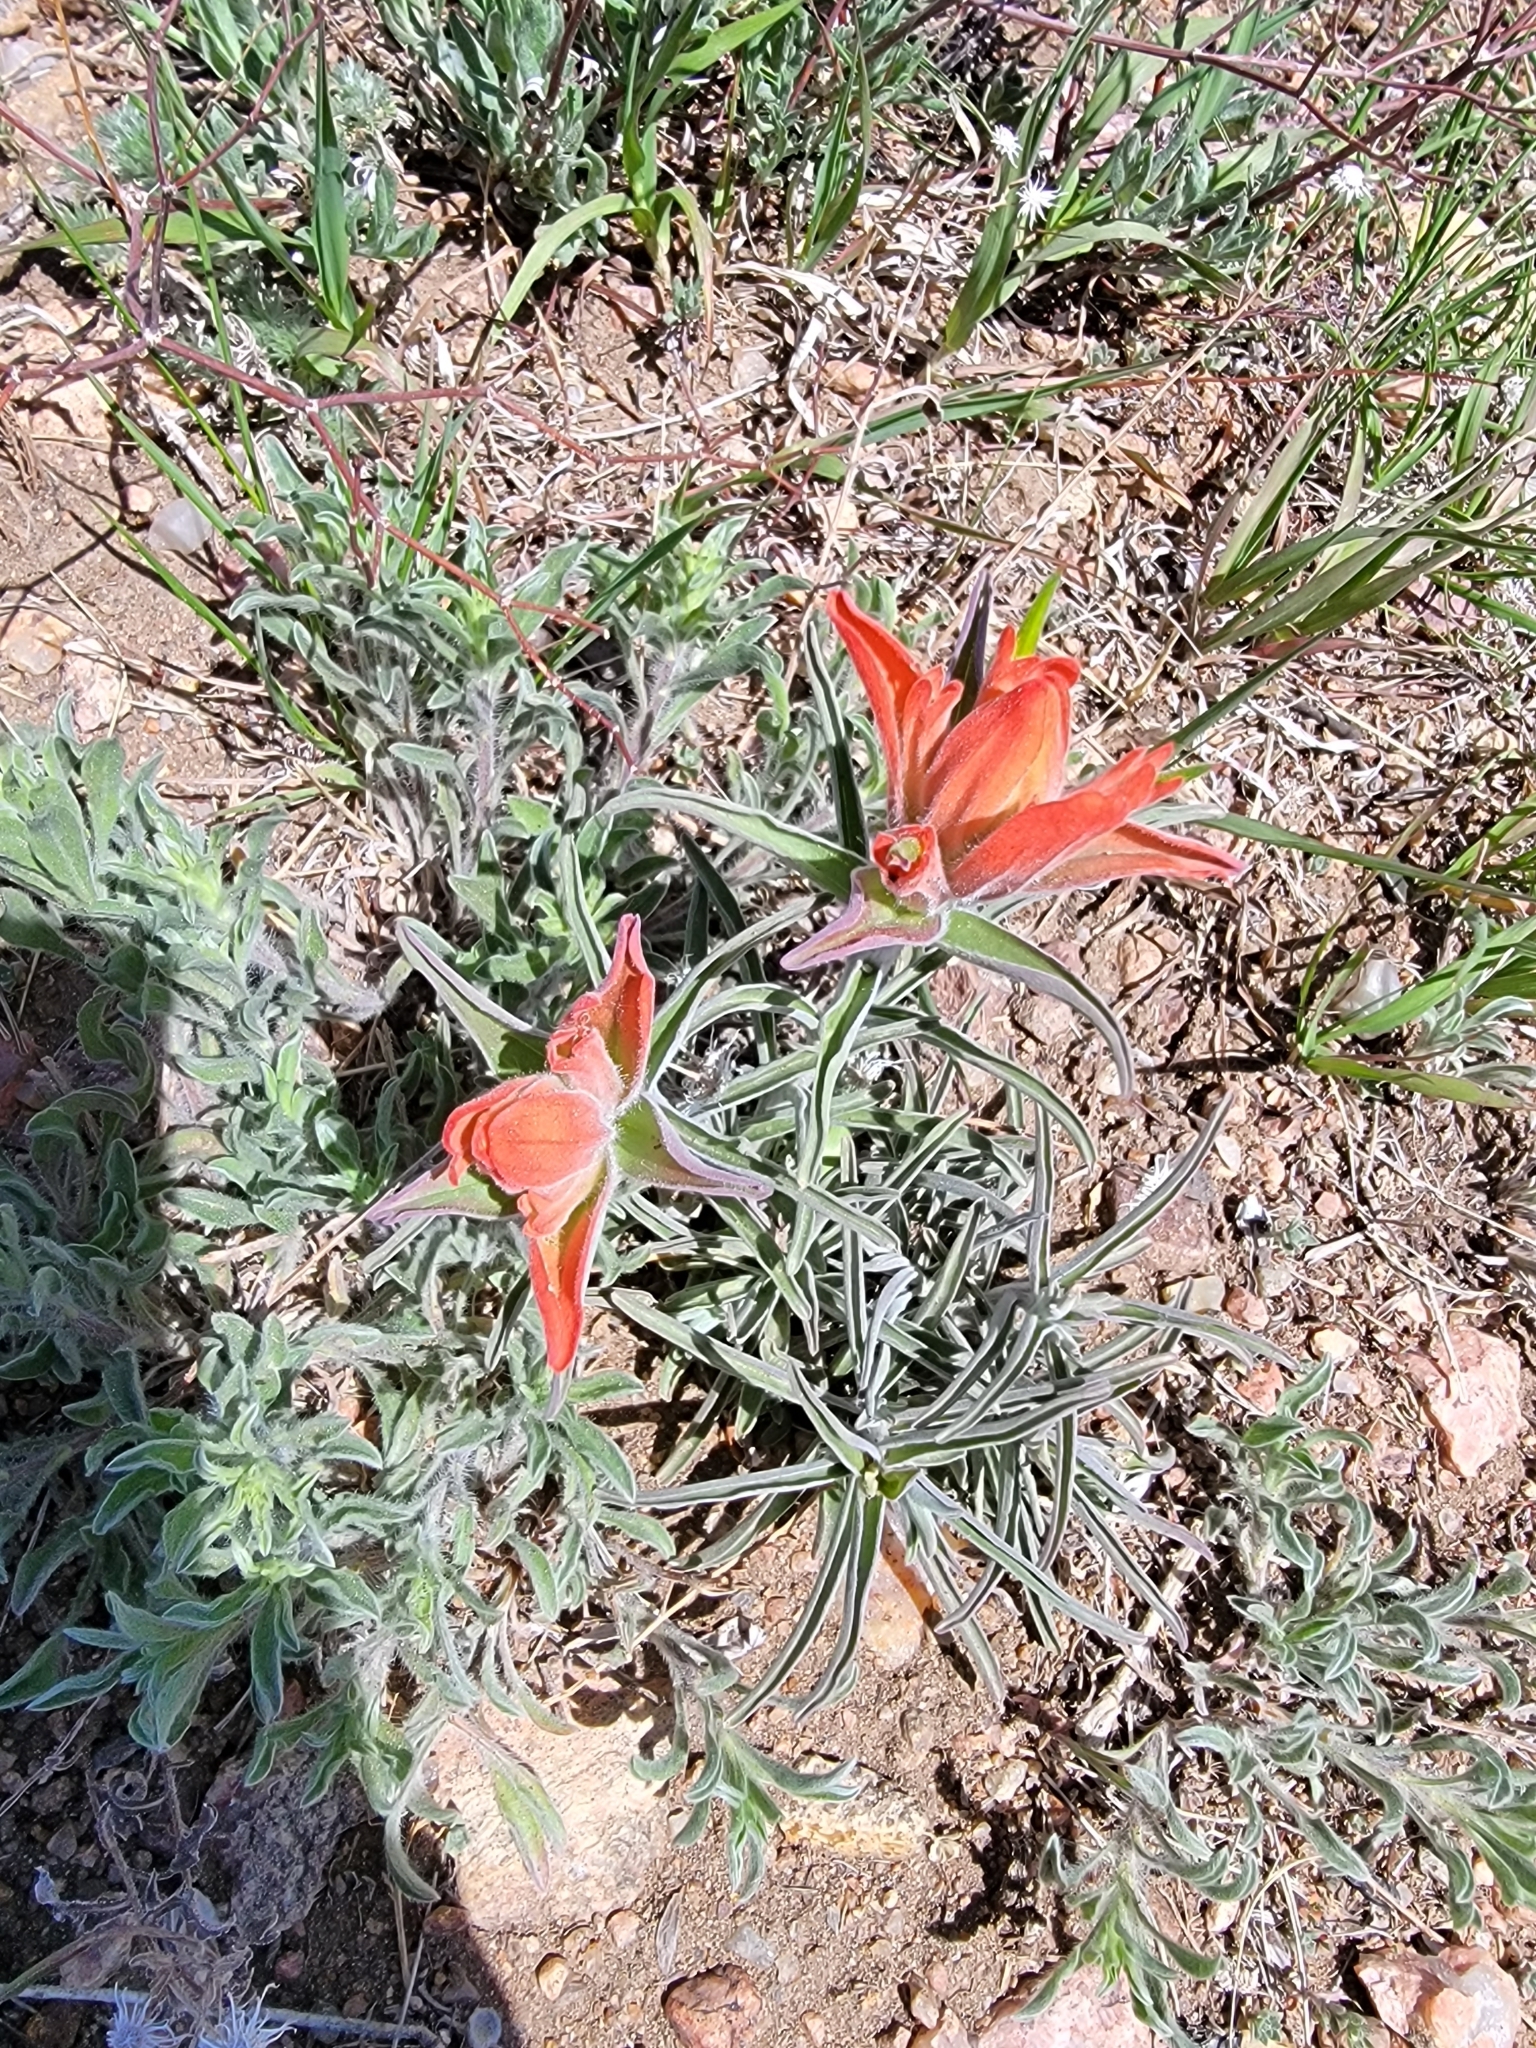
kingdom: Plantae
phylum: Tracheophyta
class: Magnoliopsida
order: Lamiales
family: Orobanchaceae
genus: Castilleja
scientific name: Castilleja integra
